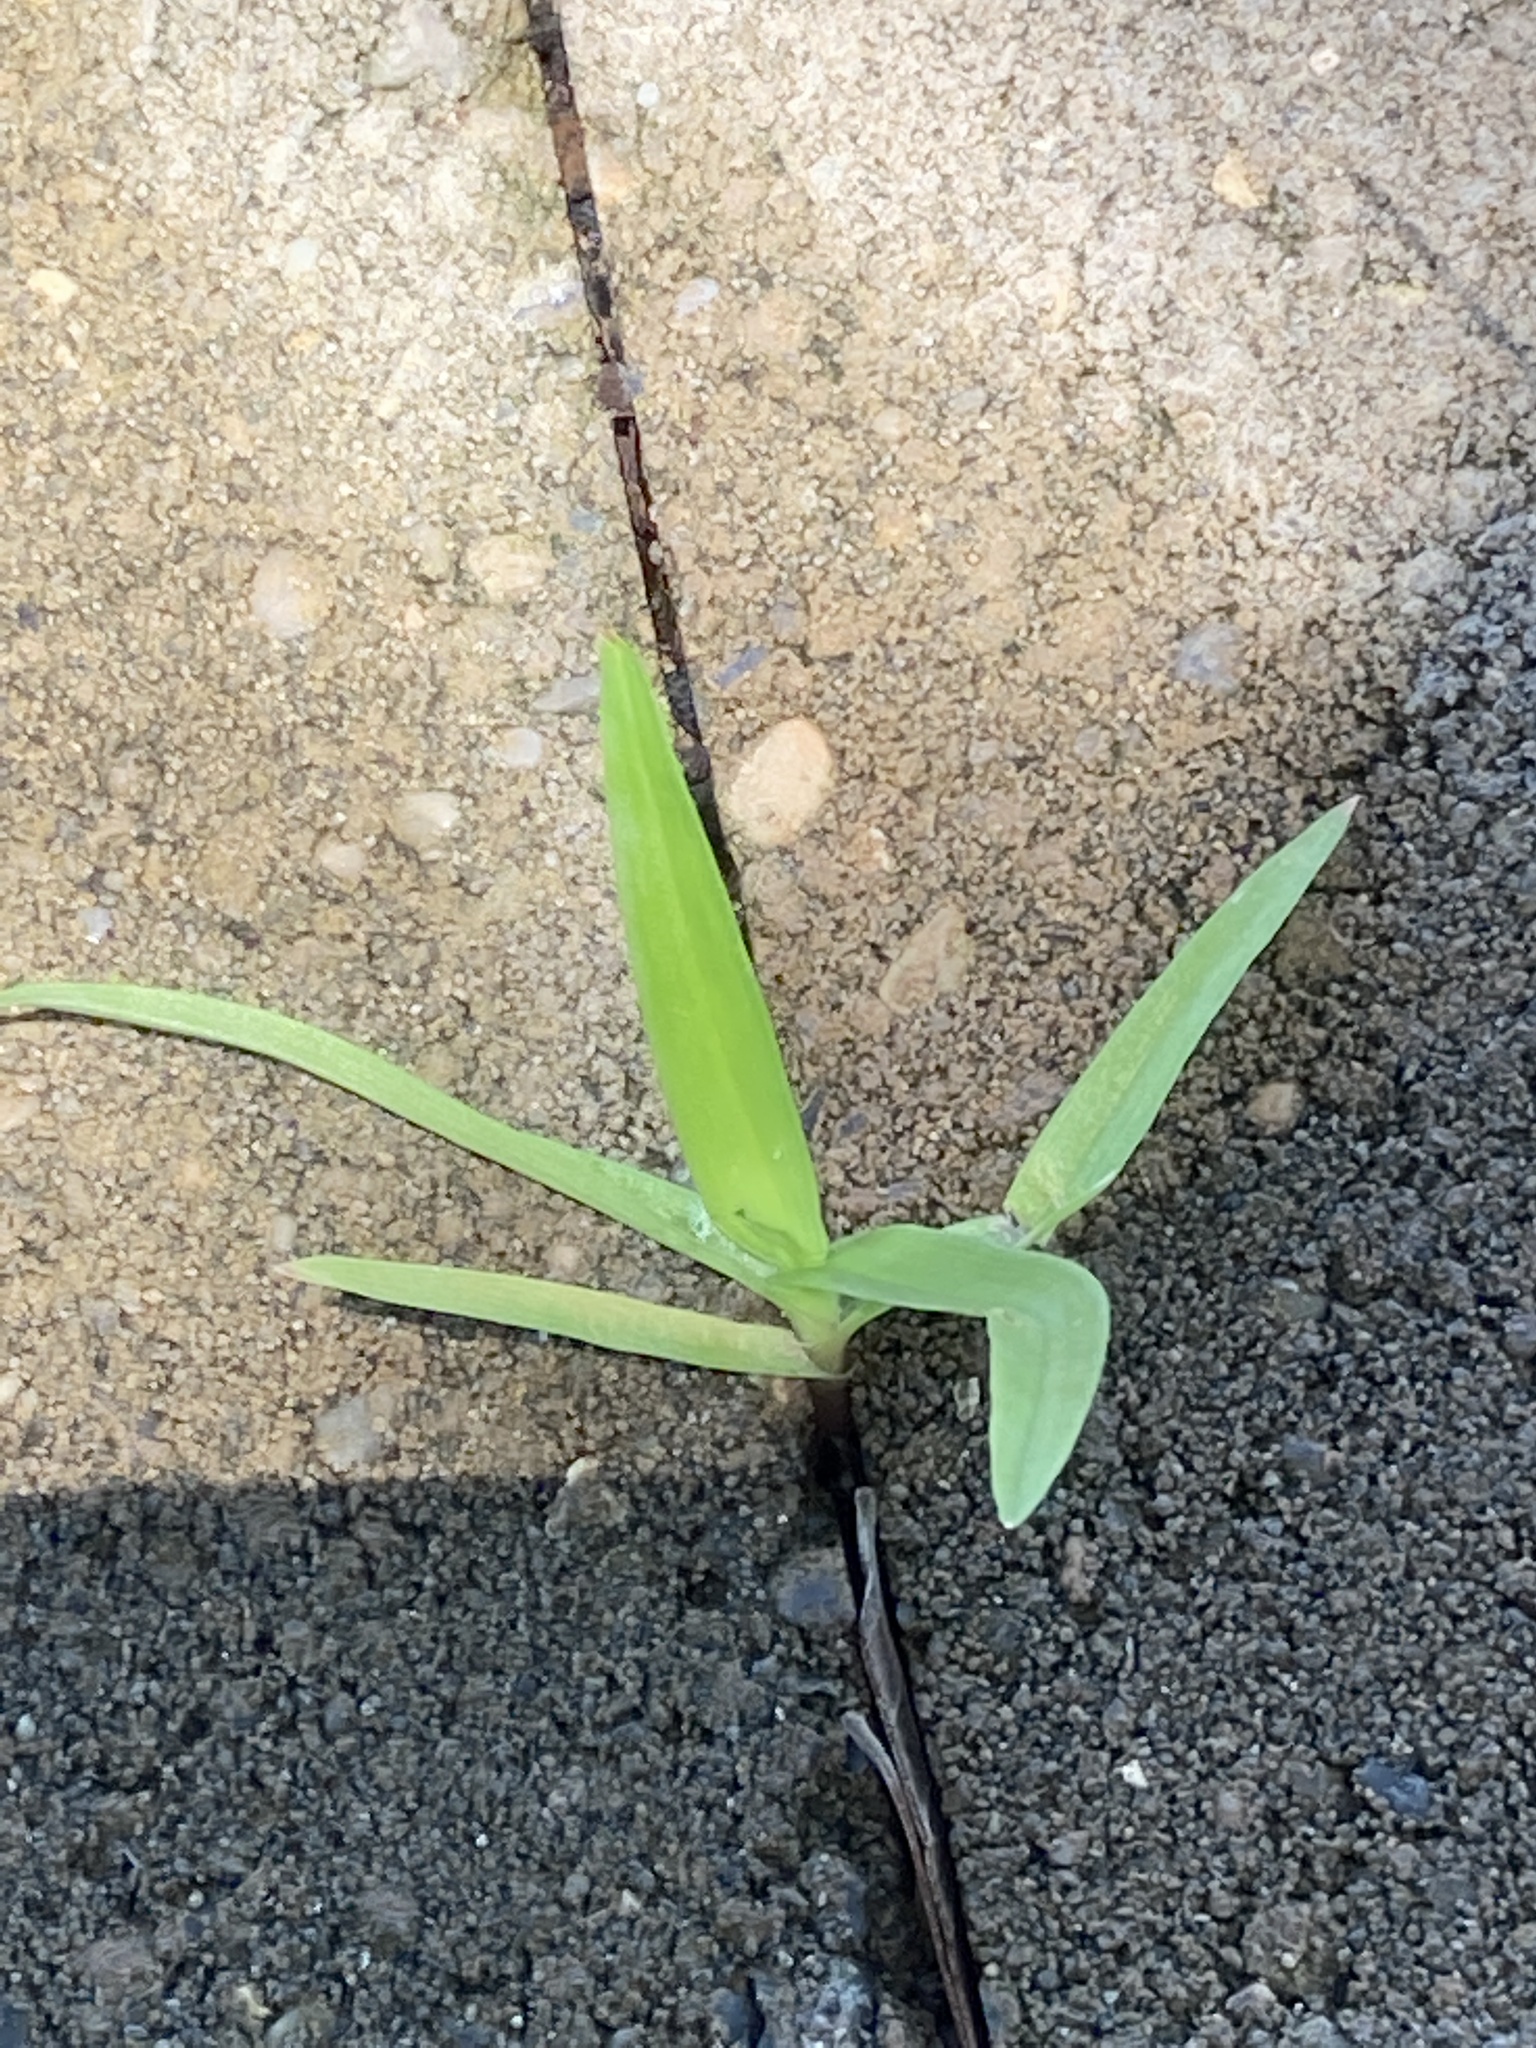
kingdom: Plantae
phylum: Tracheophyta
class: Liliopsida
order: Poales
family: Poaceae
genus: Stenotaphrum
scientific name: Stenotaphrum secundatum
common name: St. augustine grass
